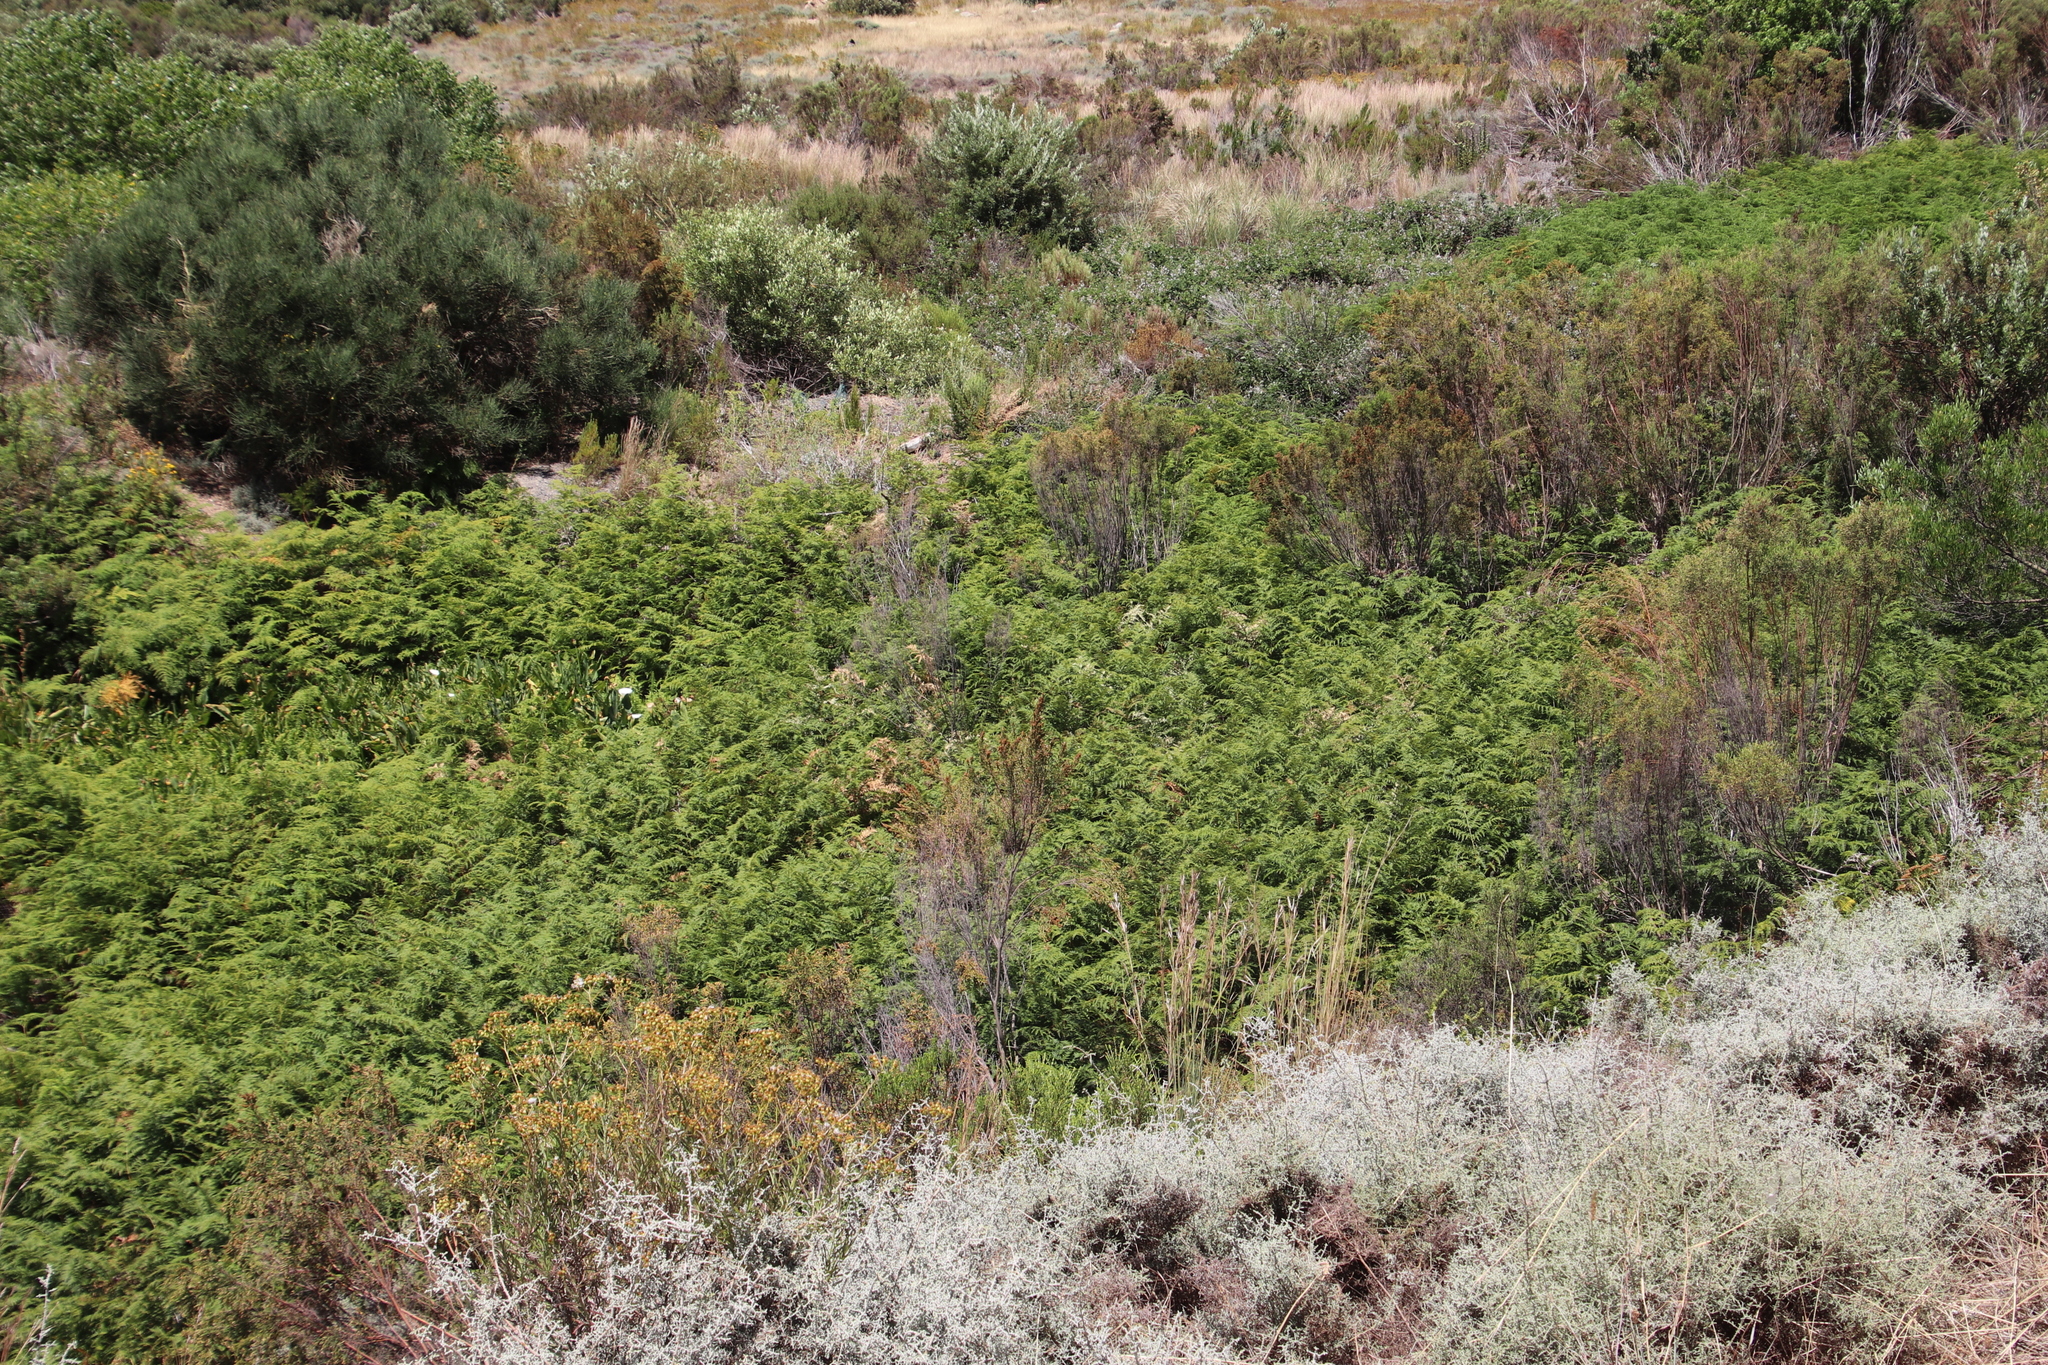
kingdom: Plantae
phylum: Tracheophyta
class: Polypodiopsida
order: Polypodiales
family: Dennstaedtiaceae
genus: Pteridium
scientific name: Pteridium aquilinum
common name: Bracken
